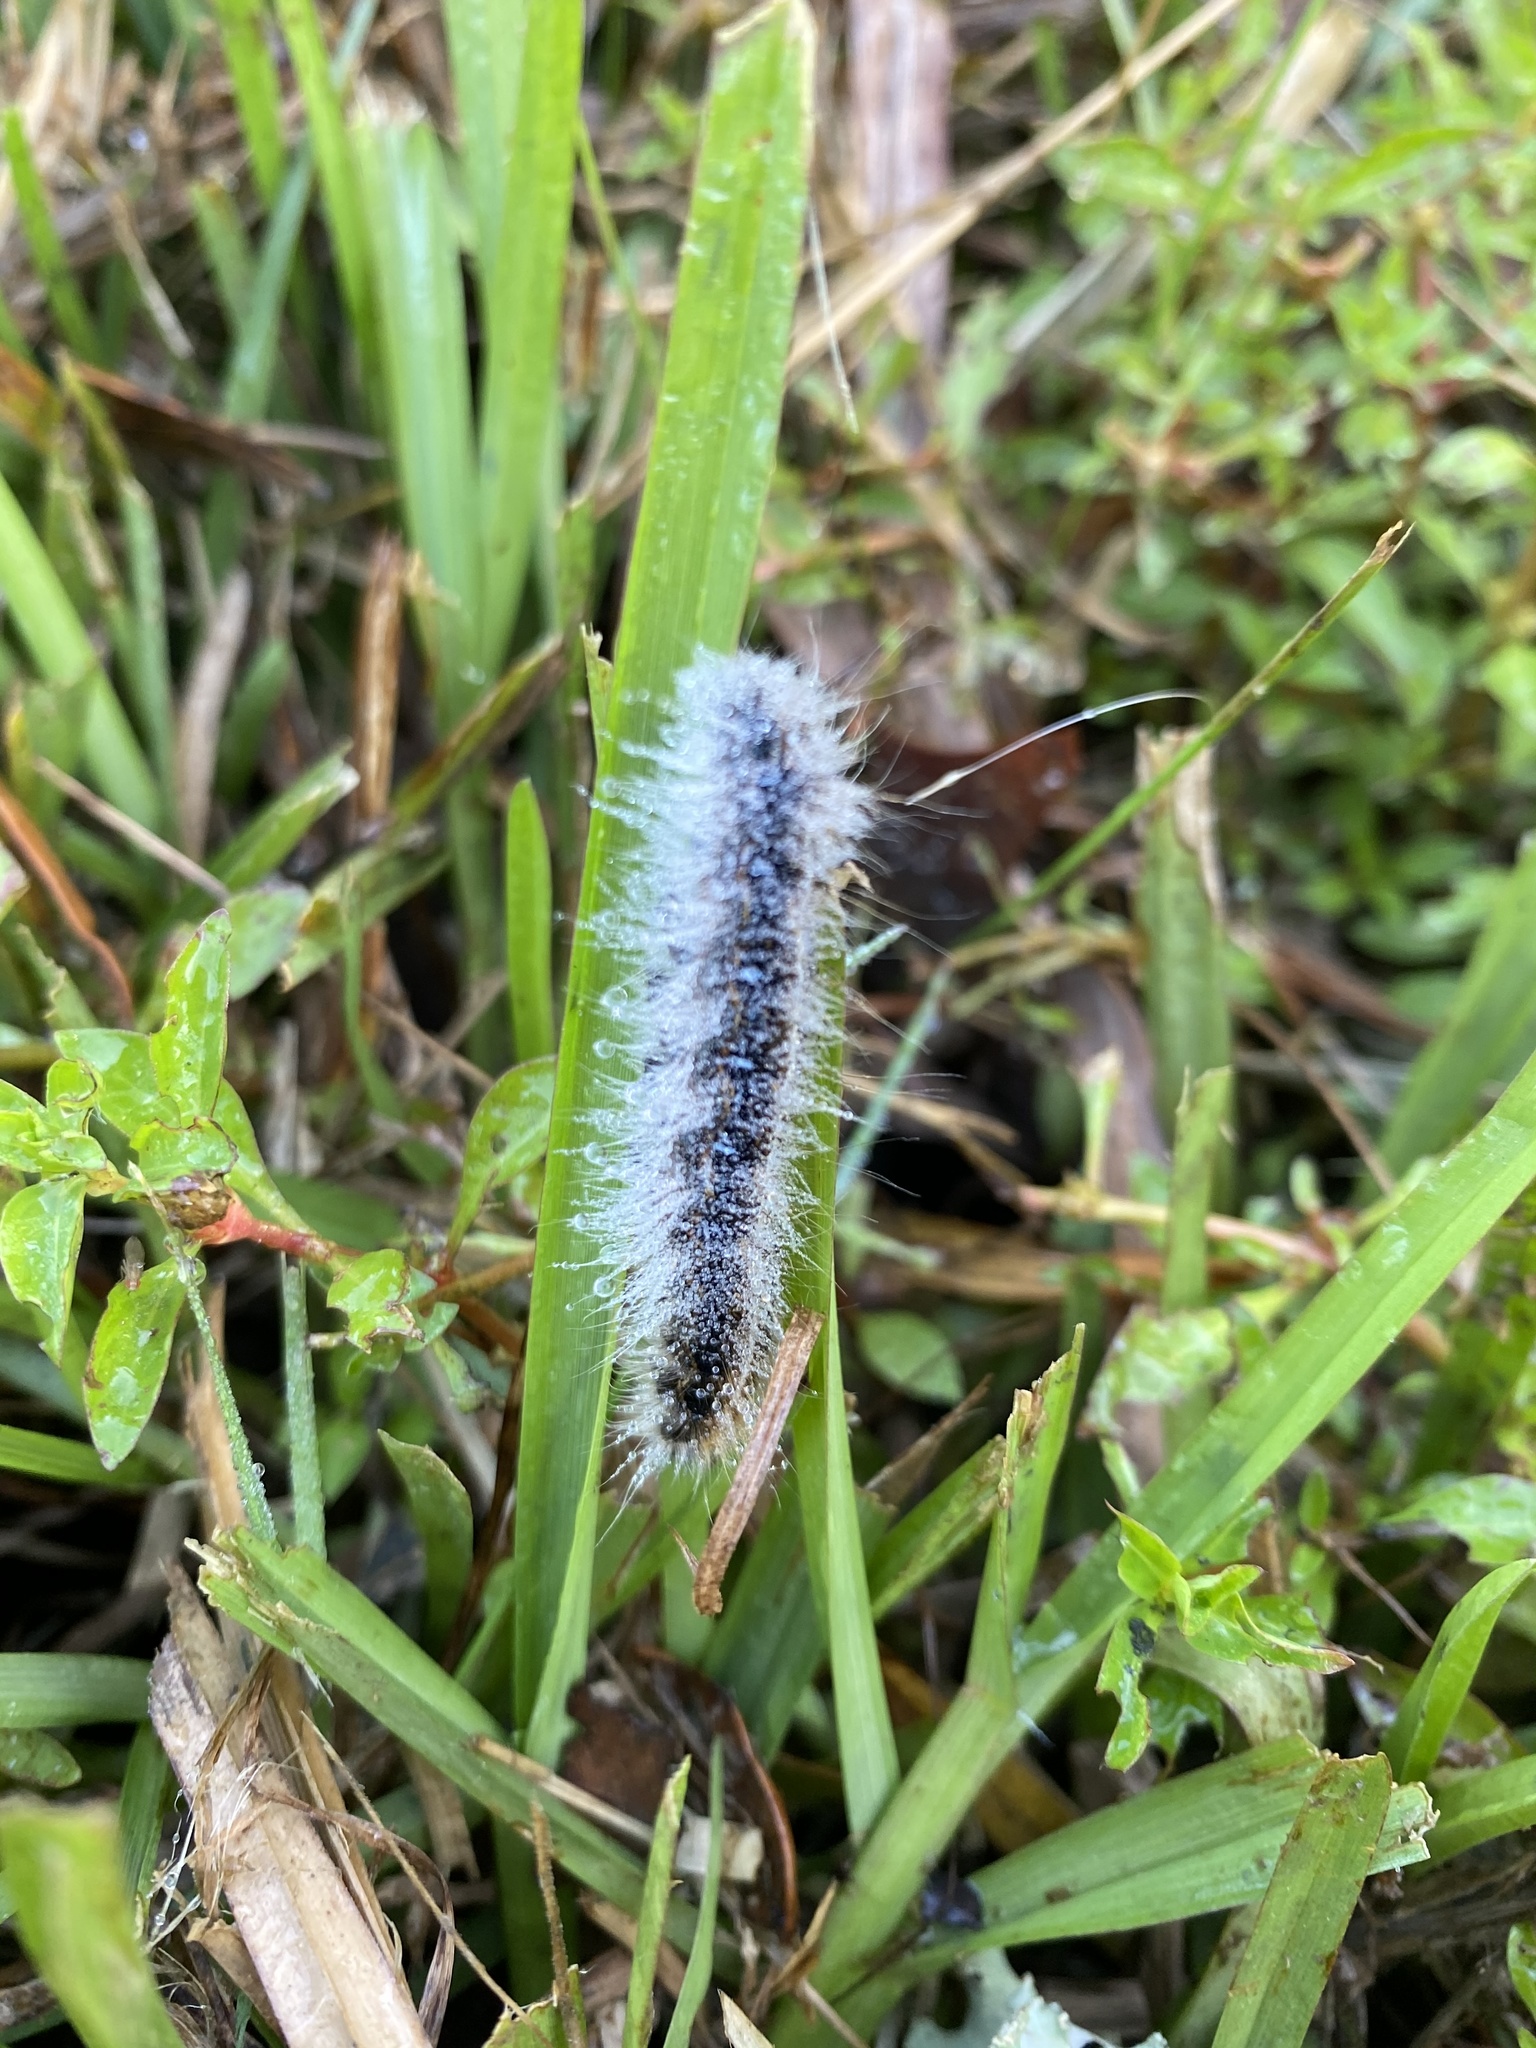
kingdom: Animalia
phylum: Arthropoda
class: Insecta
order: Lepidoptera
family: Lasiocampidae
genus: Malacosoma
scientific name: Malacosoma americana
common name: Eastern tent caterpillar moth
